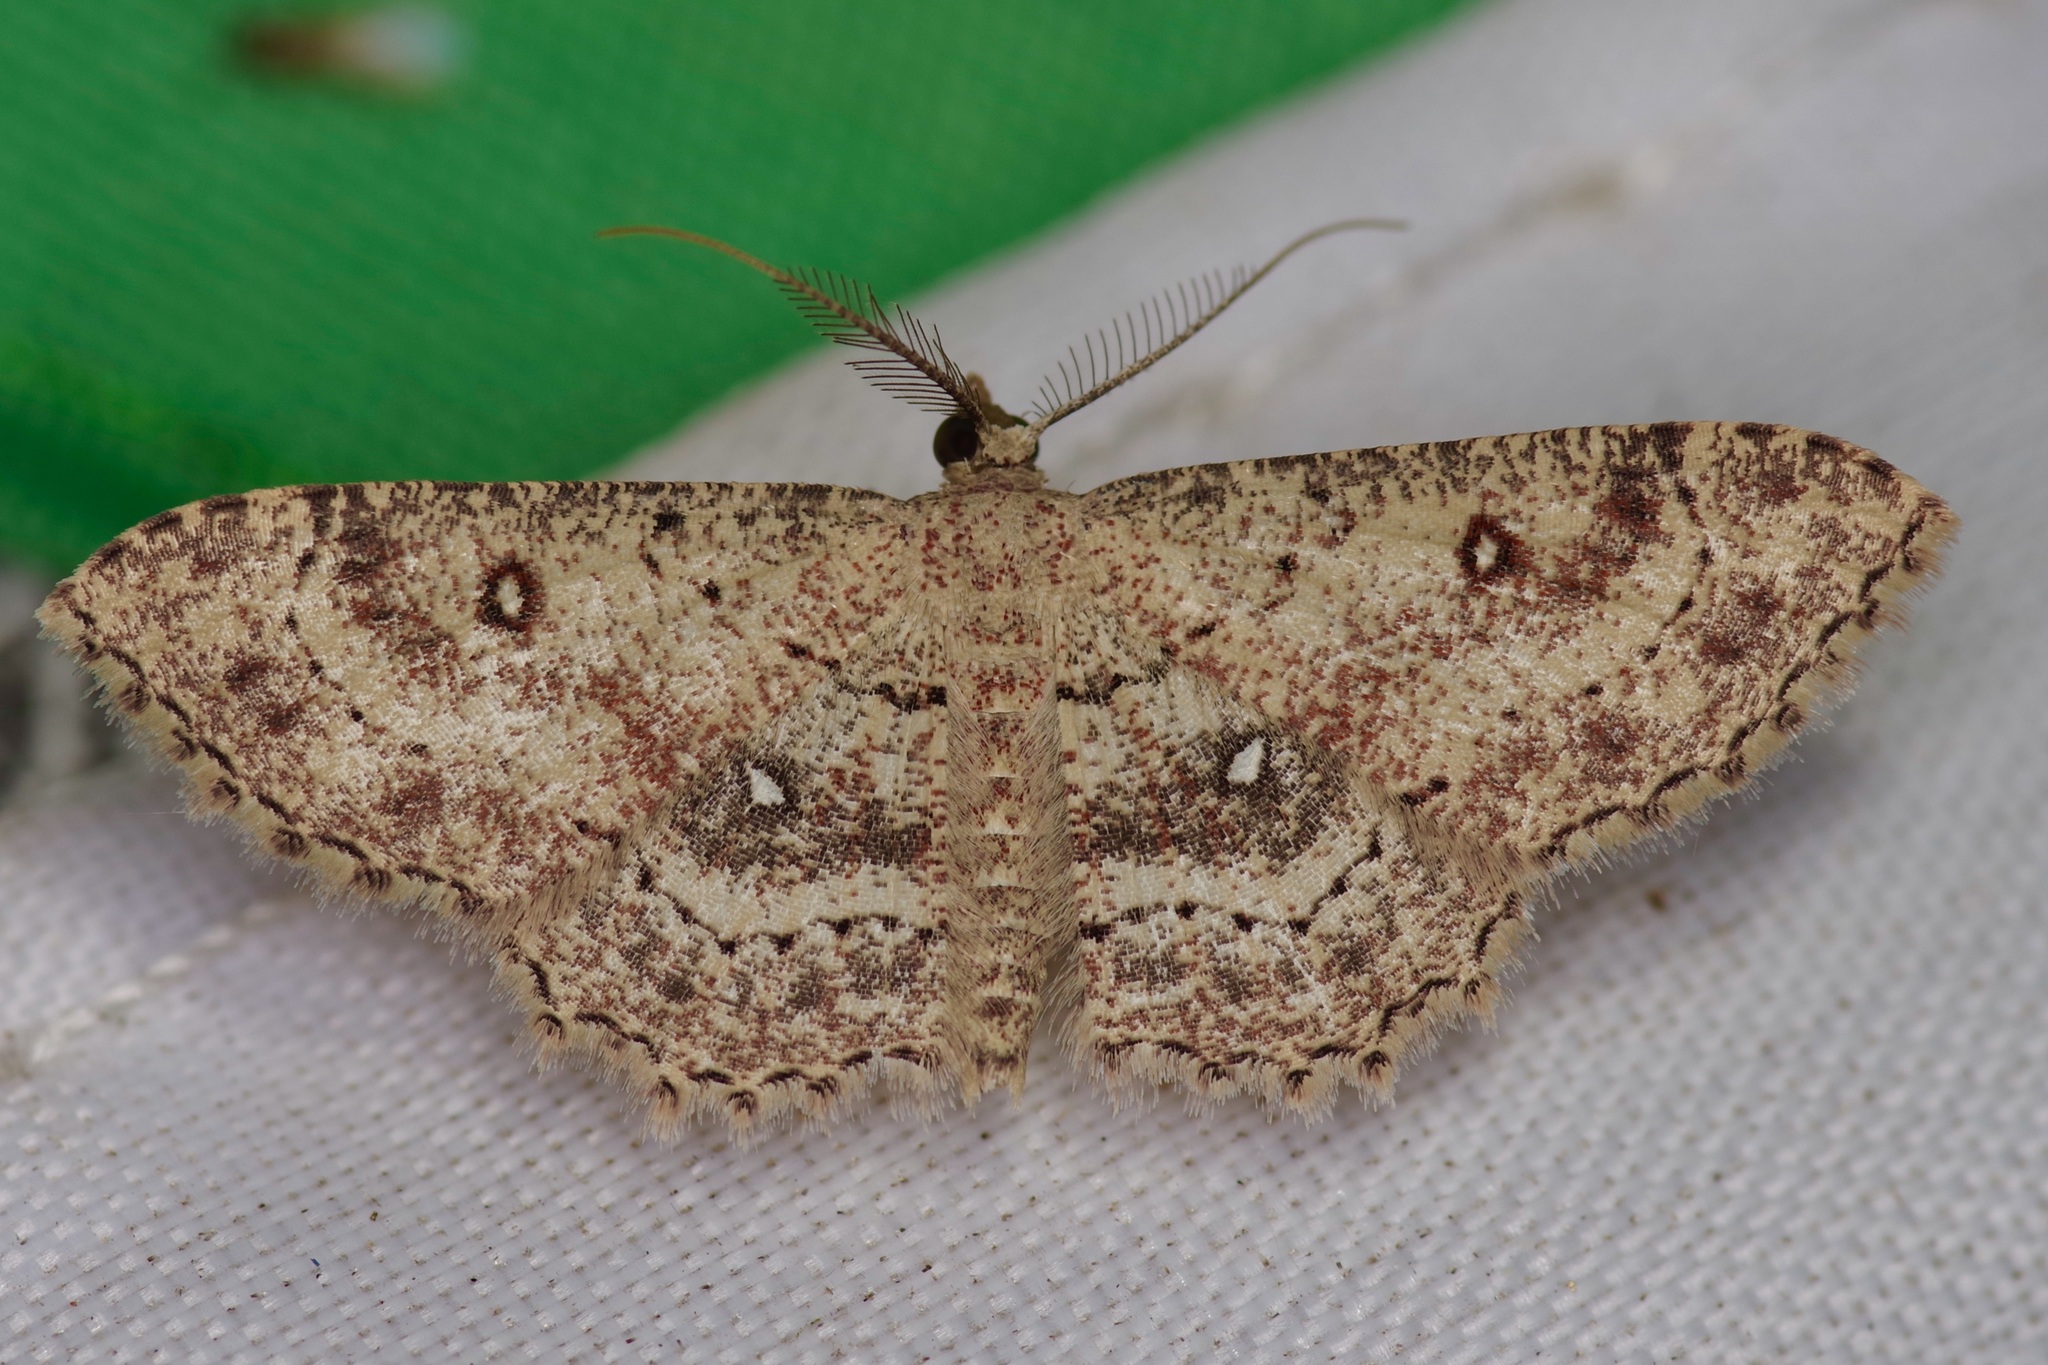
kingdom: Animalia
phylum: Arthropoda
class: Insecta
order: Lepidoptera
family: Geometridae
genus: Cyclophora
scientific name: Cyclophora nanaria
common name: Cankerworm
